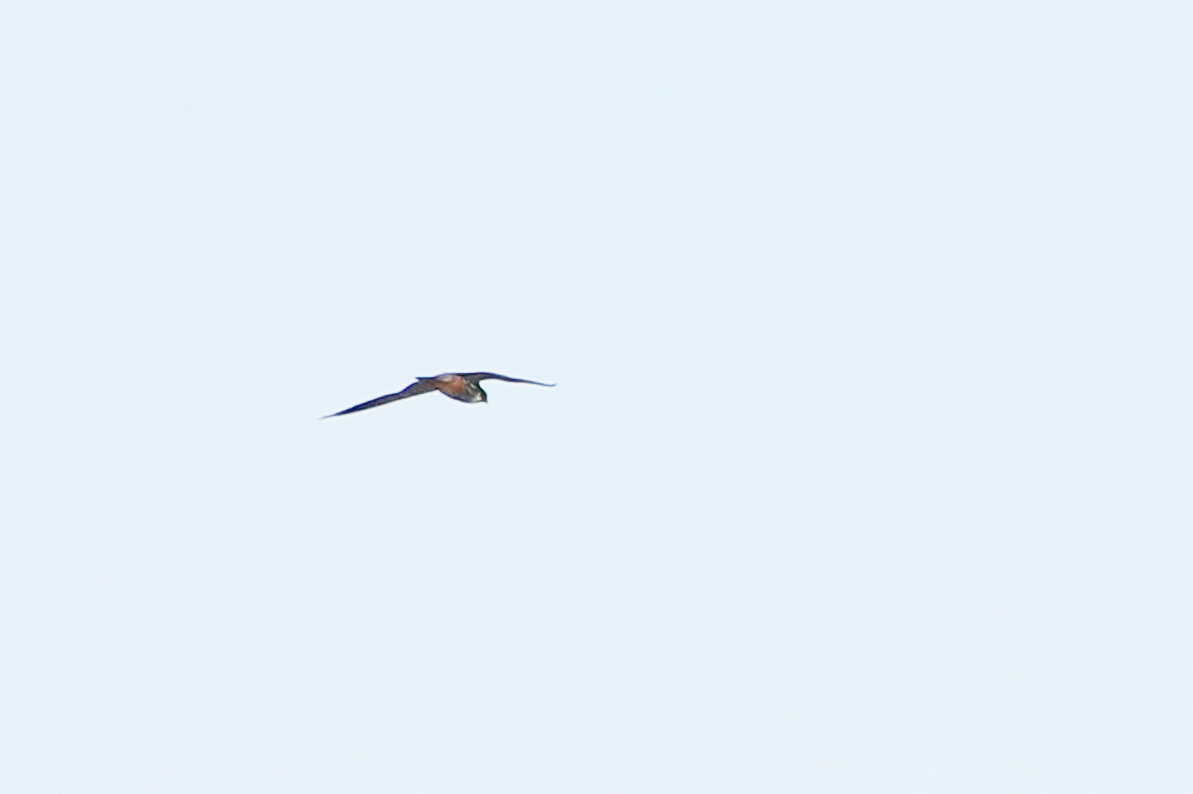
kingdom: Animalia
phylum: Chordata
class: Aves
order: Falconiformes
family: Falconidae
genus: Falco
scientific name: Falco subbuteo
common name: Eurasian hobby
